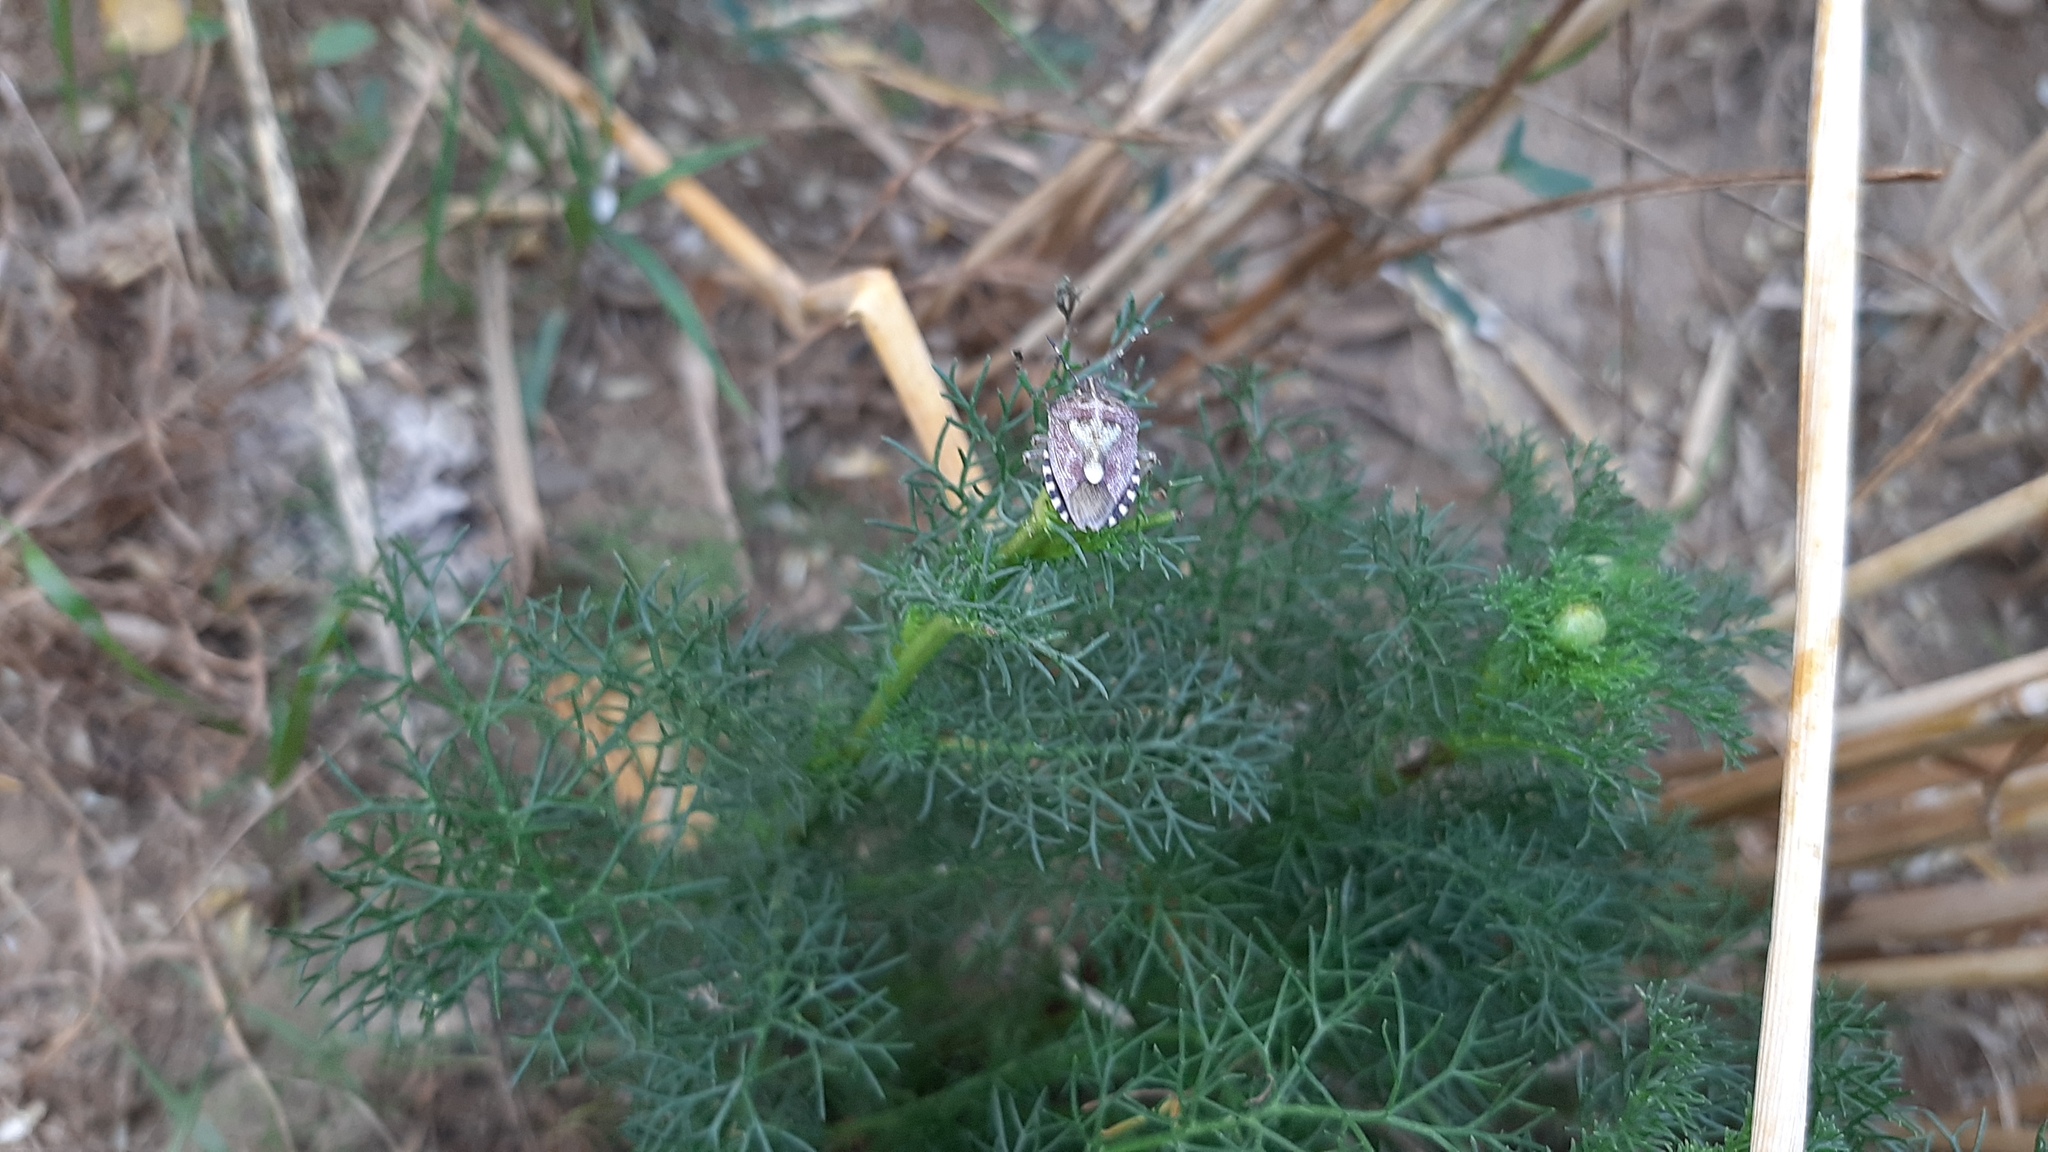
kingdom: Animalia
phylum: Arthropoda
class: Insecta
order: Hemiptera
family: Pentatomidae
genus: Dolycoris
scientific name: Dolycoris baccarum
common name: Sloe bug
